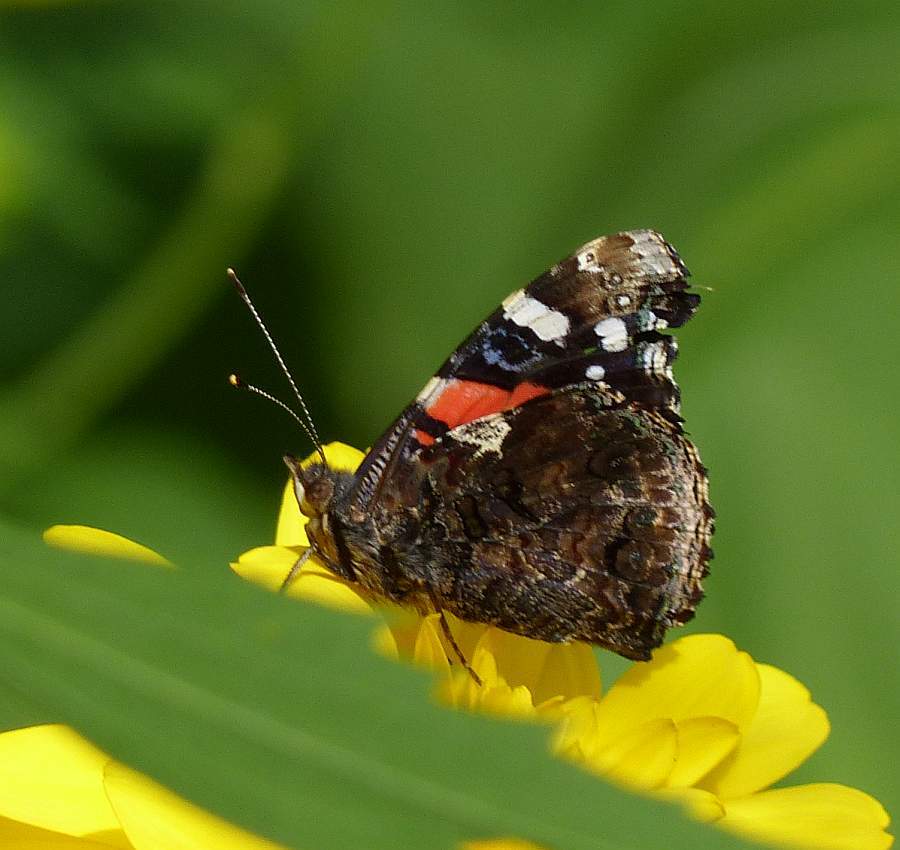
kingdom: Animalia
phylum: Arthropoda
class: Insecta
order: Lepidoptera
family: Nymphalidae
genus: Vanessa
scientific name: Vanessa atalanta
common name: Red admiral
